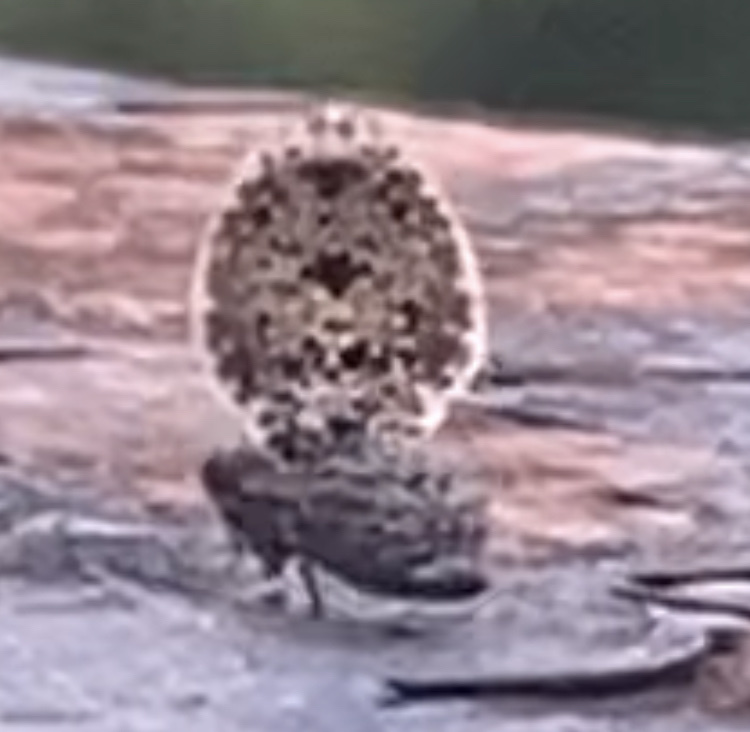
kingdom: Animalia
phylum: Arthropoda
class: Insecta
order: Diptera
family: Ulidiidae
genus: Callopistromyia
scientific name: Callopistromyia annulipes
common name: Peacock fly
